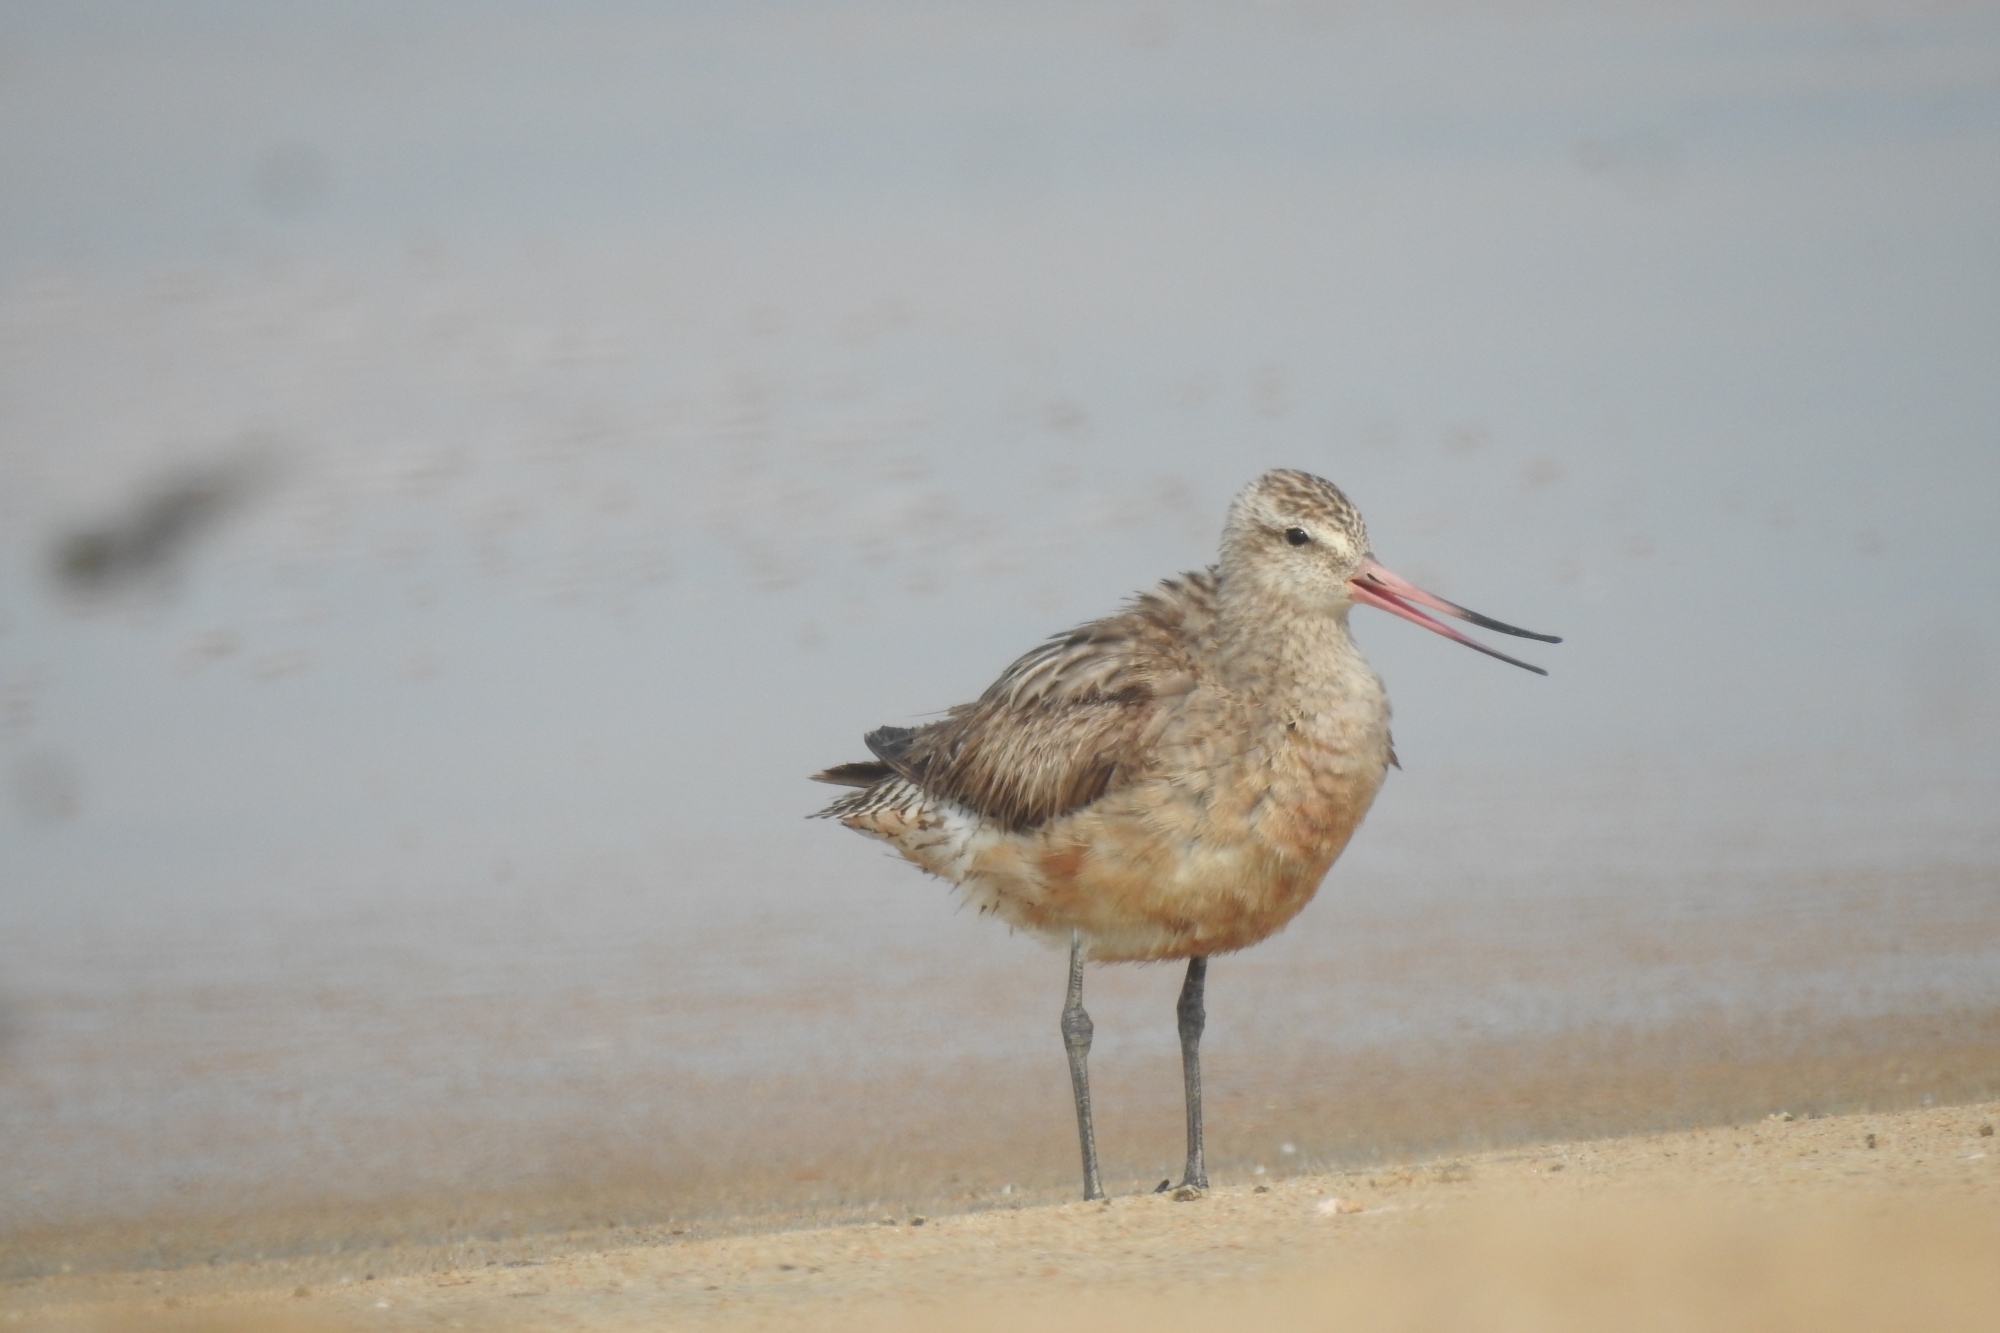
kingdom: Animalia
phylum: Chordata
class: Aves
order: Charadriiformes
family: Scolopacidae
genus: Limosa
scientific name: Limosa lapponica
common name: Bar-tailed godwit
